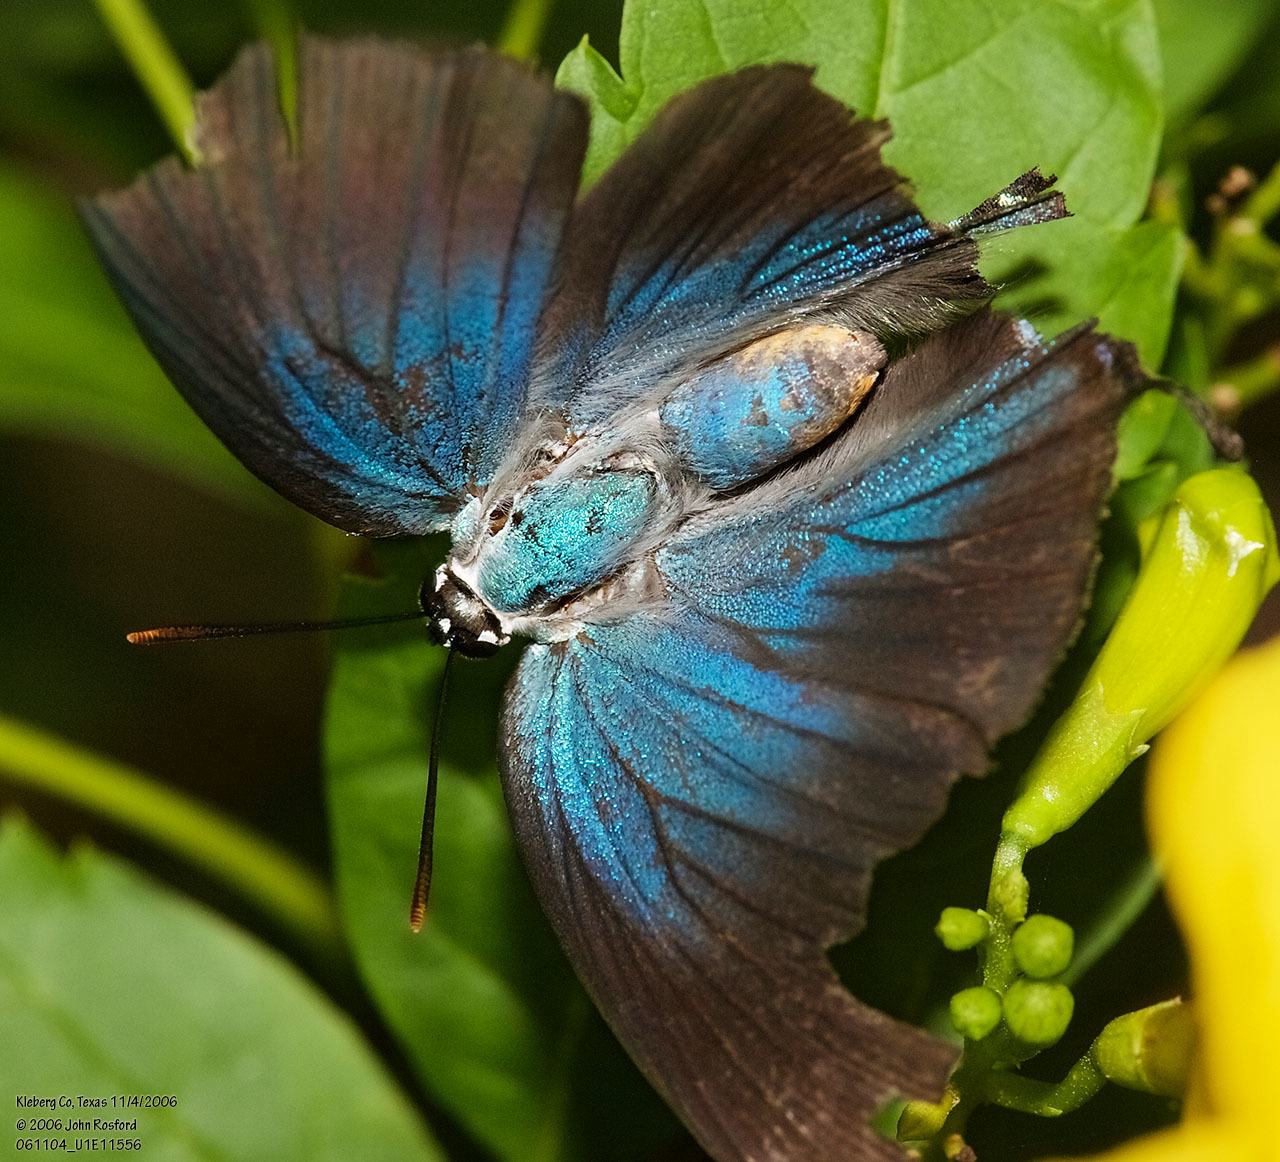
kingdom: Animalia
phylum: Arthropoda
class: Insecta
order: Lepidoptera
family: Lycaenidae
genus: Atlides
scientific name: Atlides halesus
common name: Great purple hairstreak
